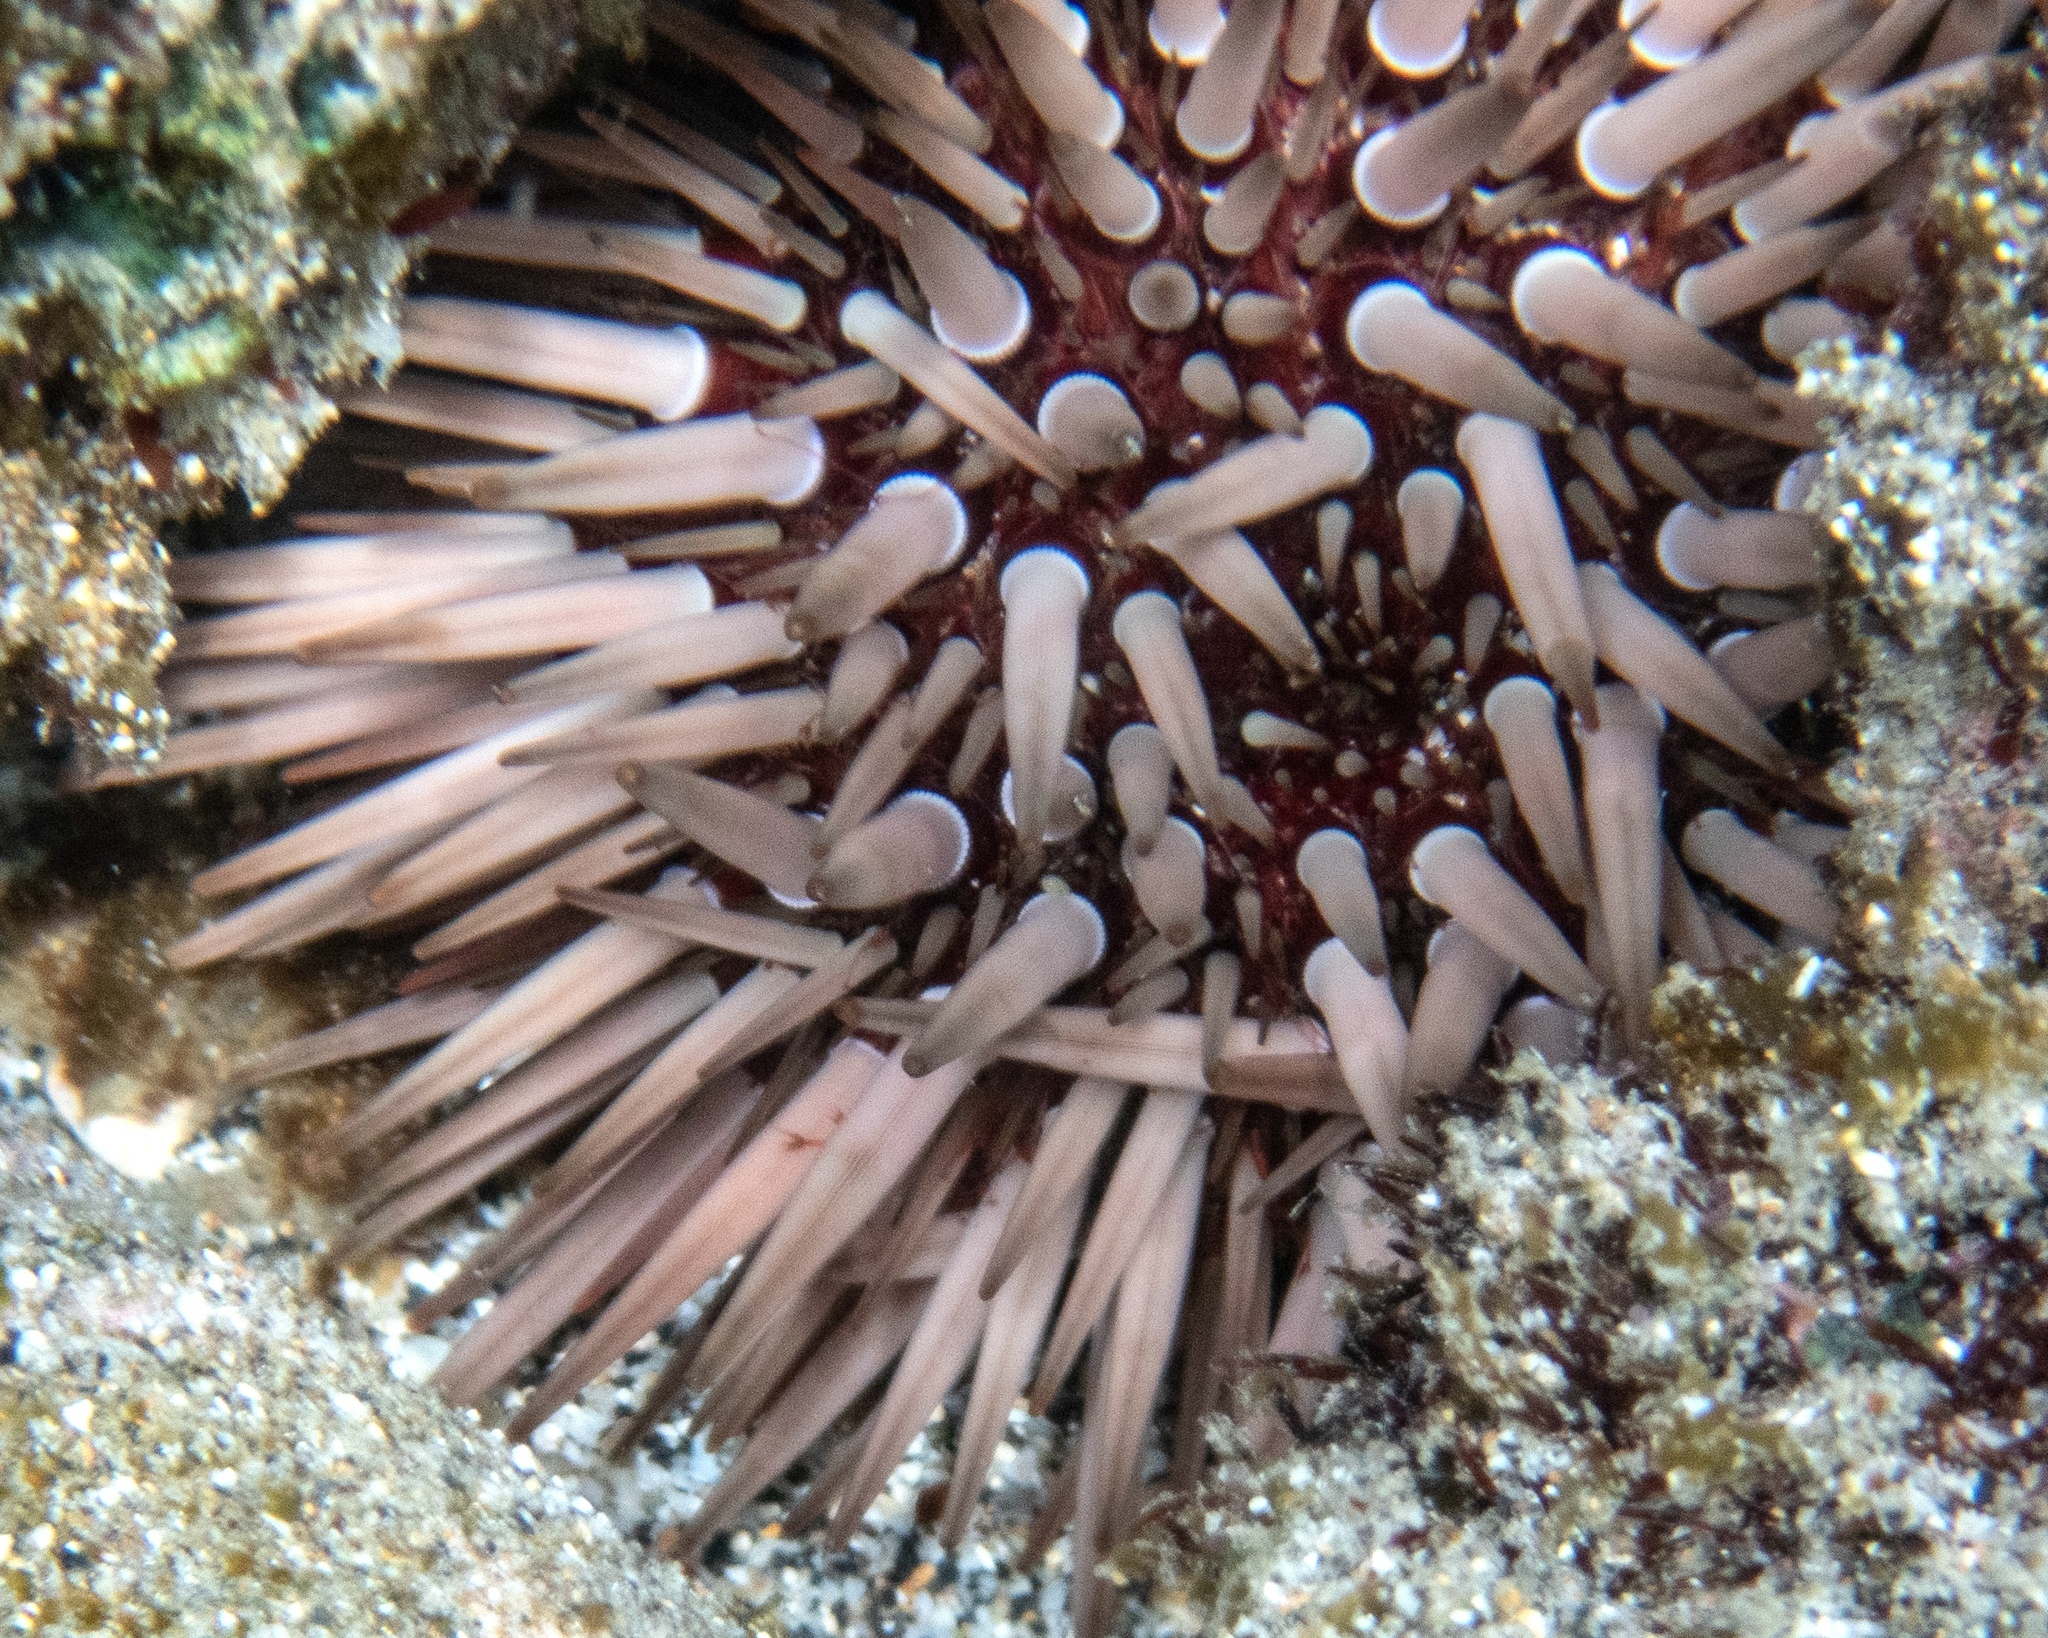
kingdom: Animalia
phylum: Echinodermata
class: Echinoidea
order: Camarodonta
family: Echinometridae
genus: Echinometra
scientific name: Echinometra mathaei
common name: Rock-boring urchin
